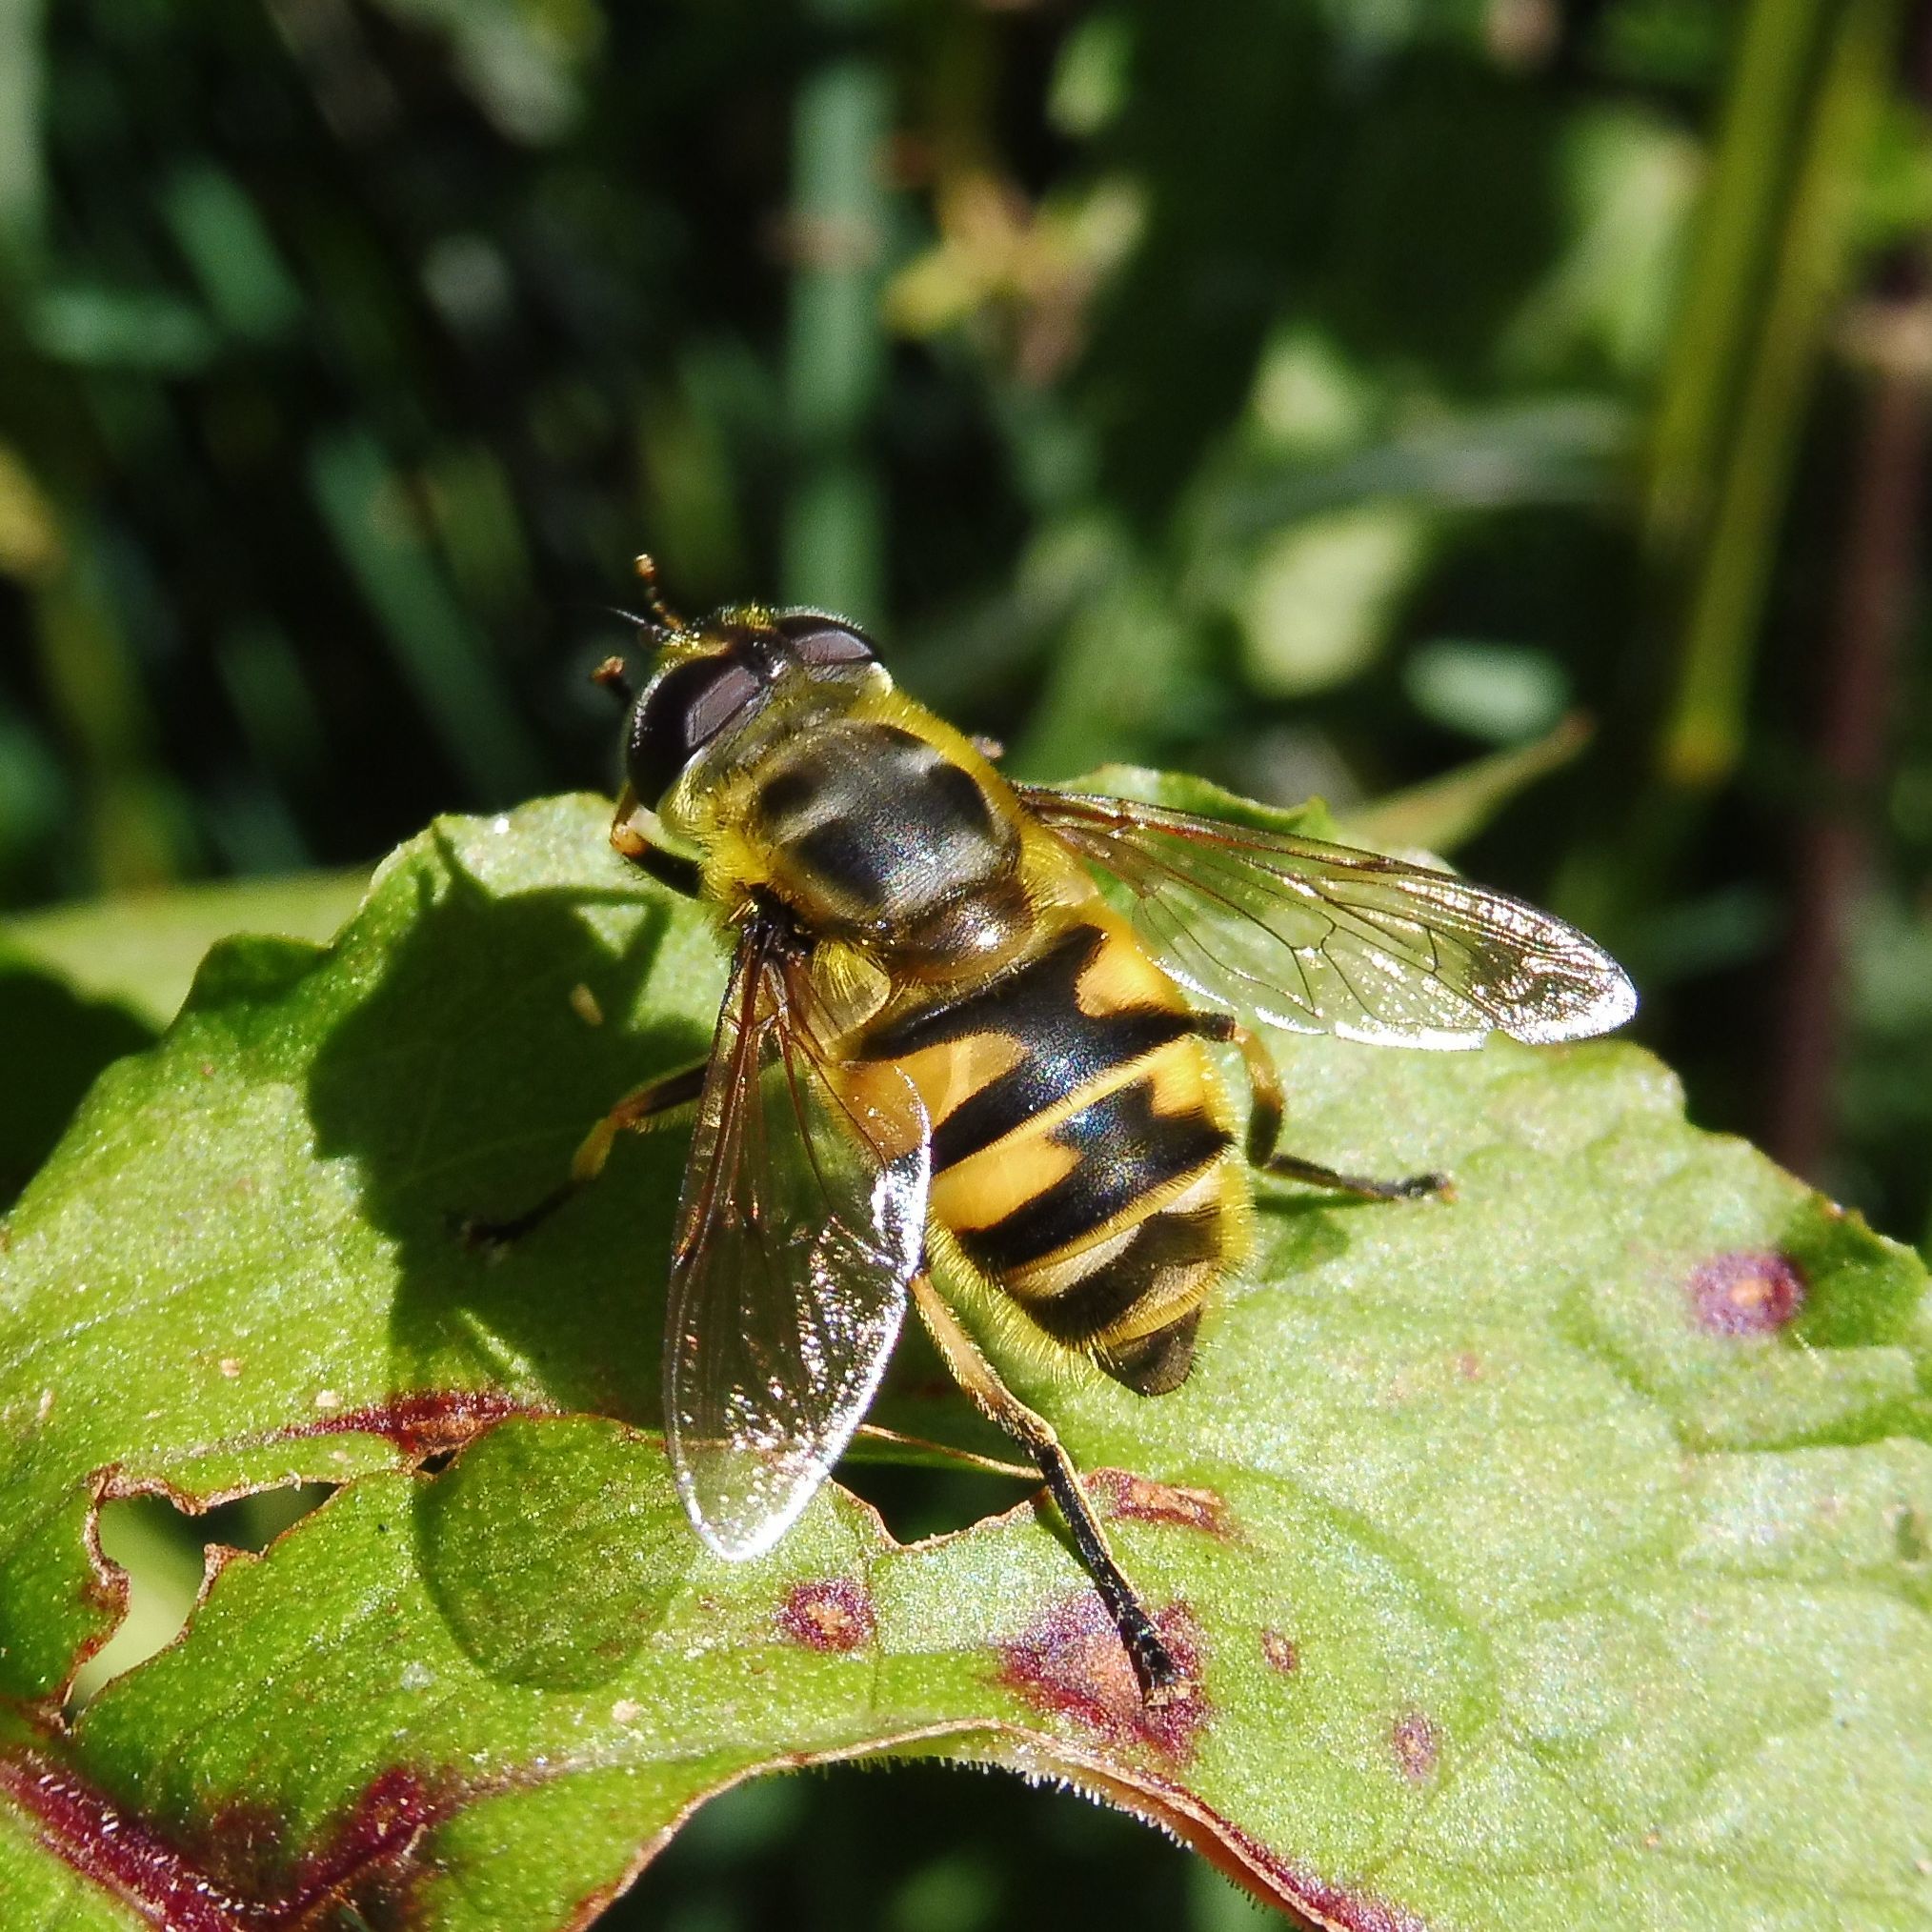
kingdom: Animalia
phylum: Arthropoda
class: Insecta
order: Diptera
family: Syrphidae
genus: Myathropa
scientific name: Myathropa florea
